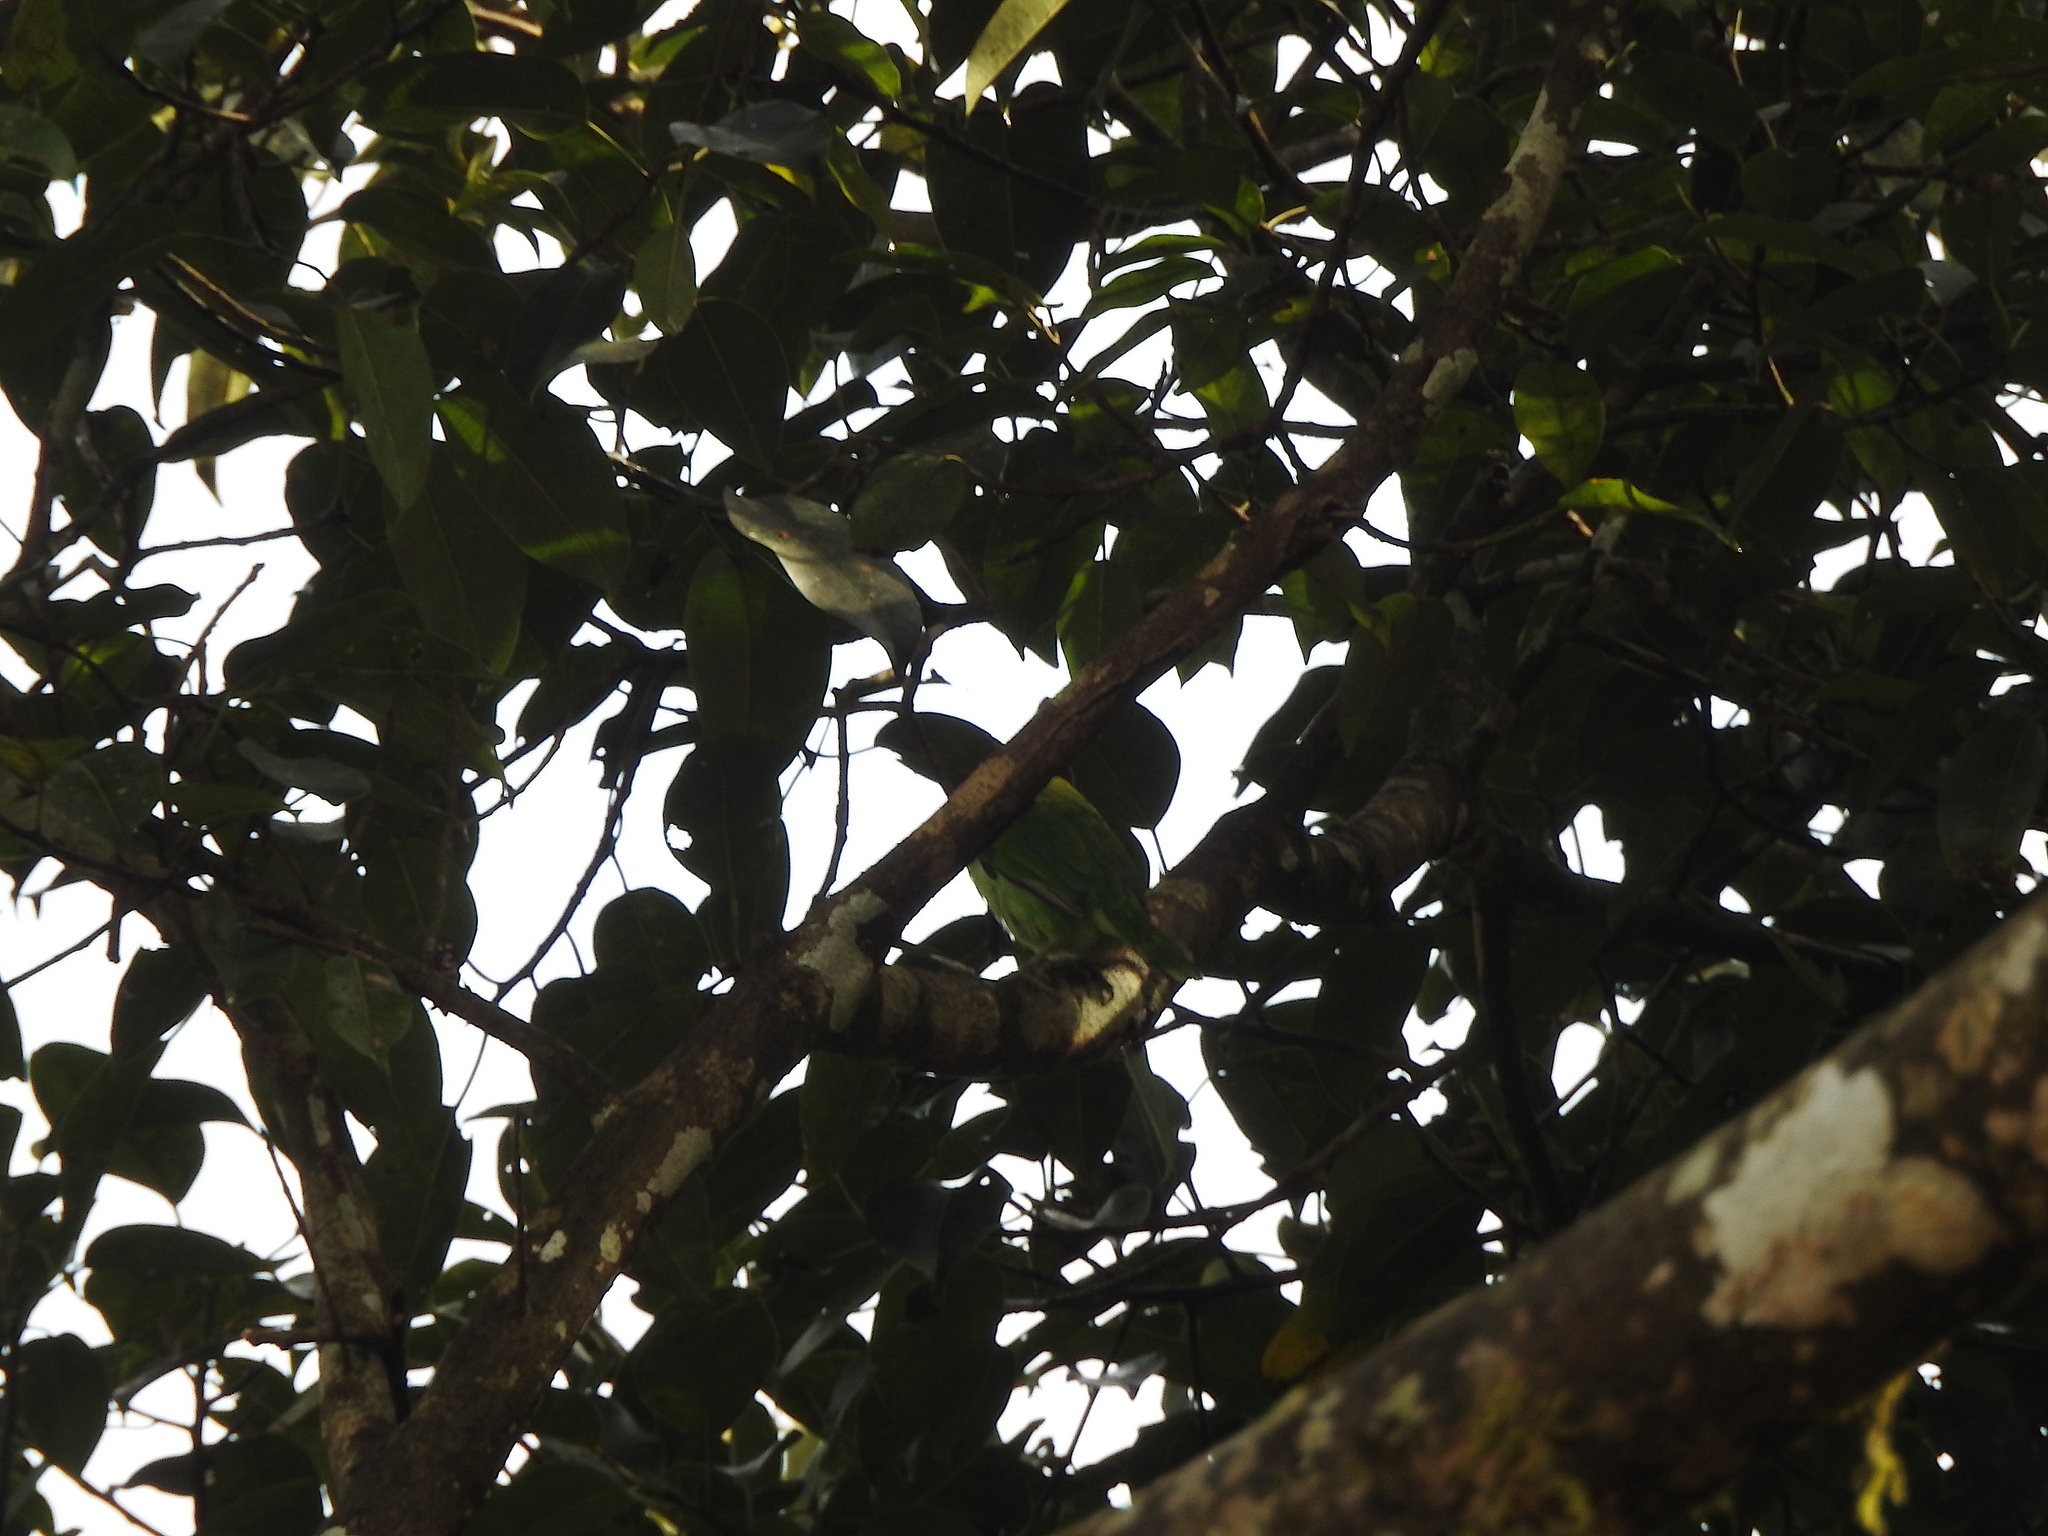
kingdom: Animalia
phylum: Chordata
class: Aves
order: Piciformes
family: Megalaimidae
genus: Psilopogon
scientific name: Psilopogon viridis
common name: White-cheeked barbet
